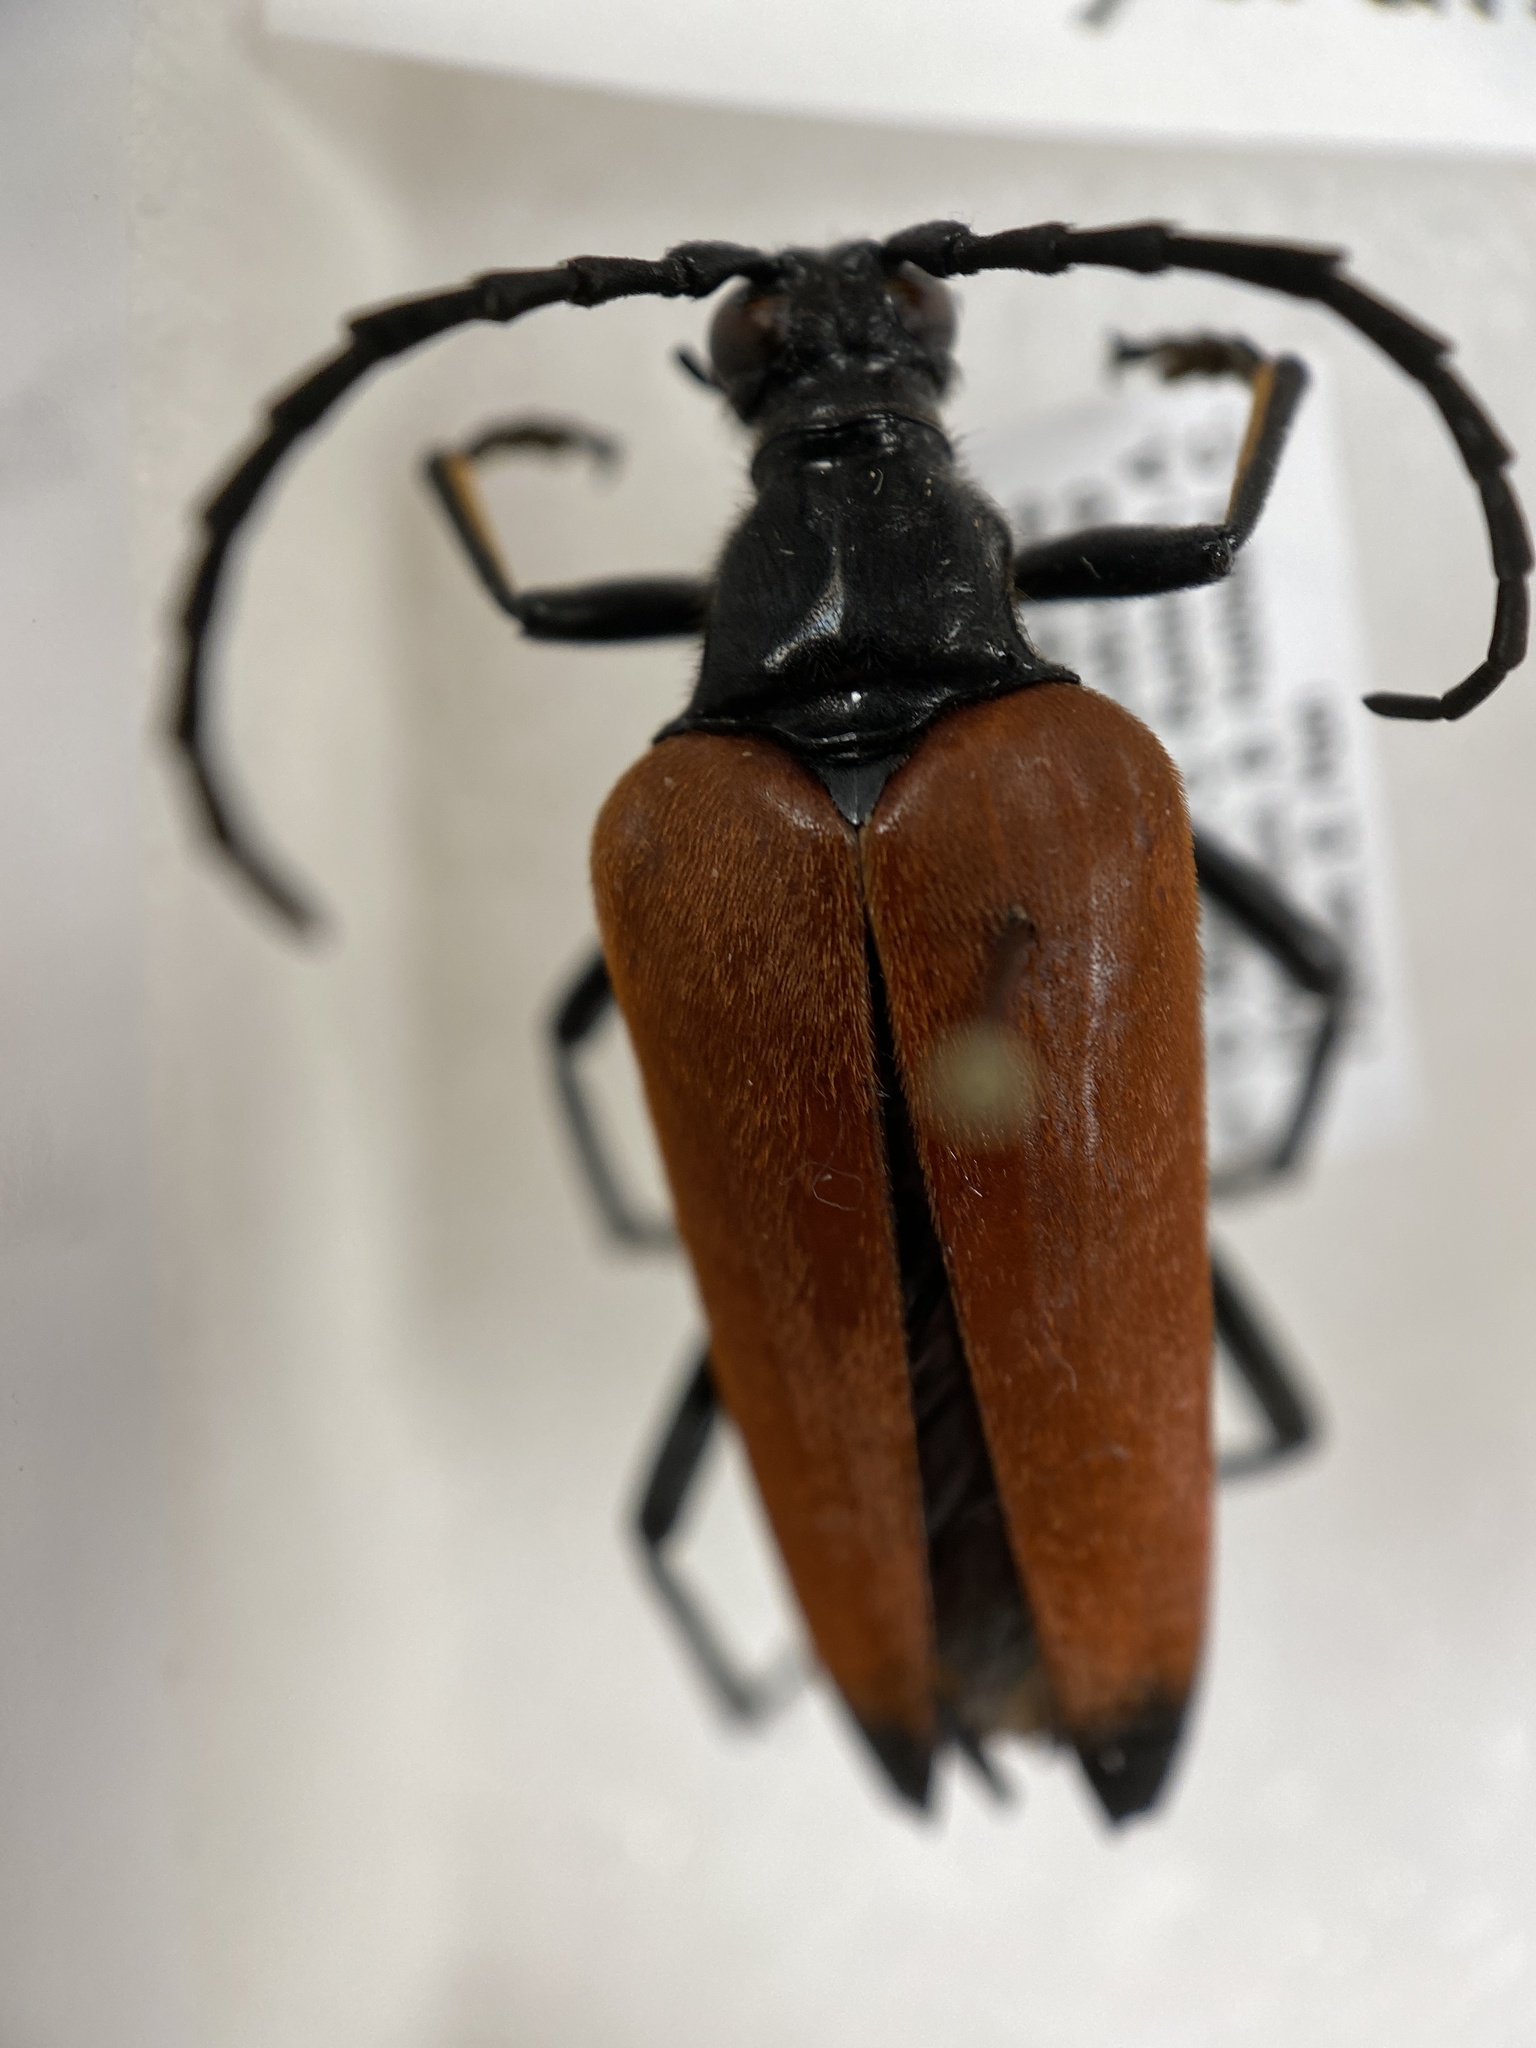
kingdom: Animalia
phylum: Arthropoda
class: Insecta
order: Coleoptera
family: Cerambycidae
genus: Stenelytrana
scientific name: Stenelytrana emarginata
